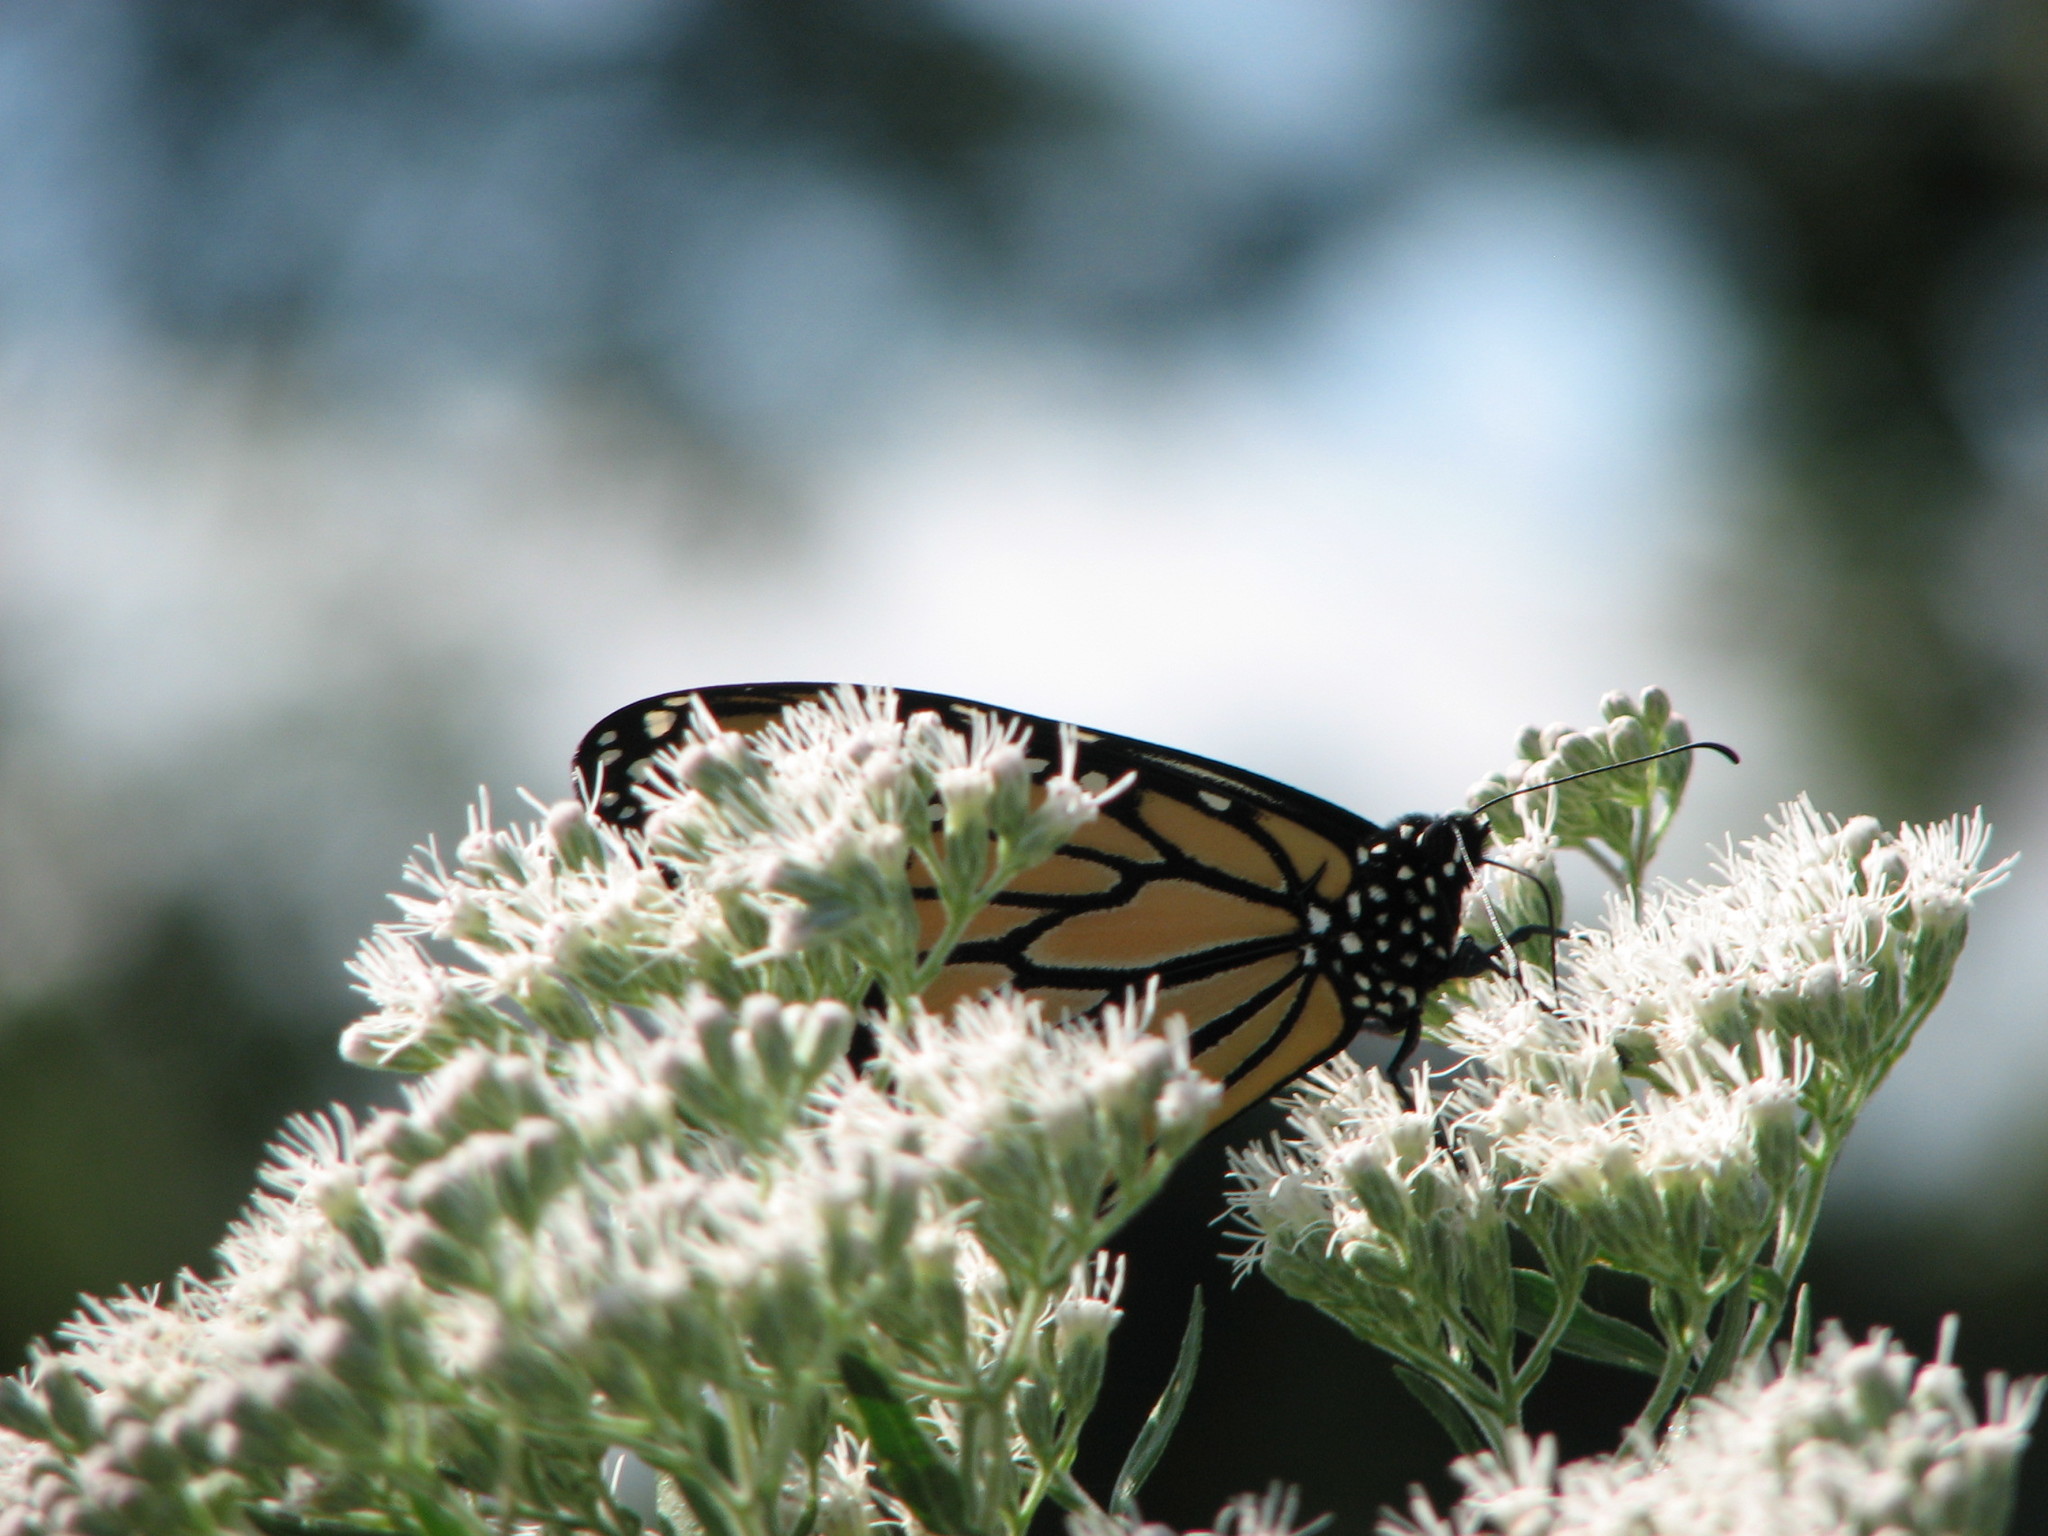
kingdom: Animalia
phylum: Arthropoda
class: Insecta
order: Lepidoptera
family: Nymphalidae
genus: Danaus
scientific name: Danaus plexippus
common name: Monarch
